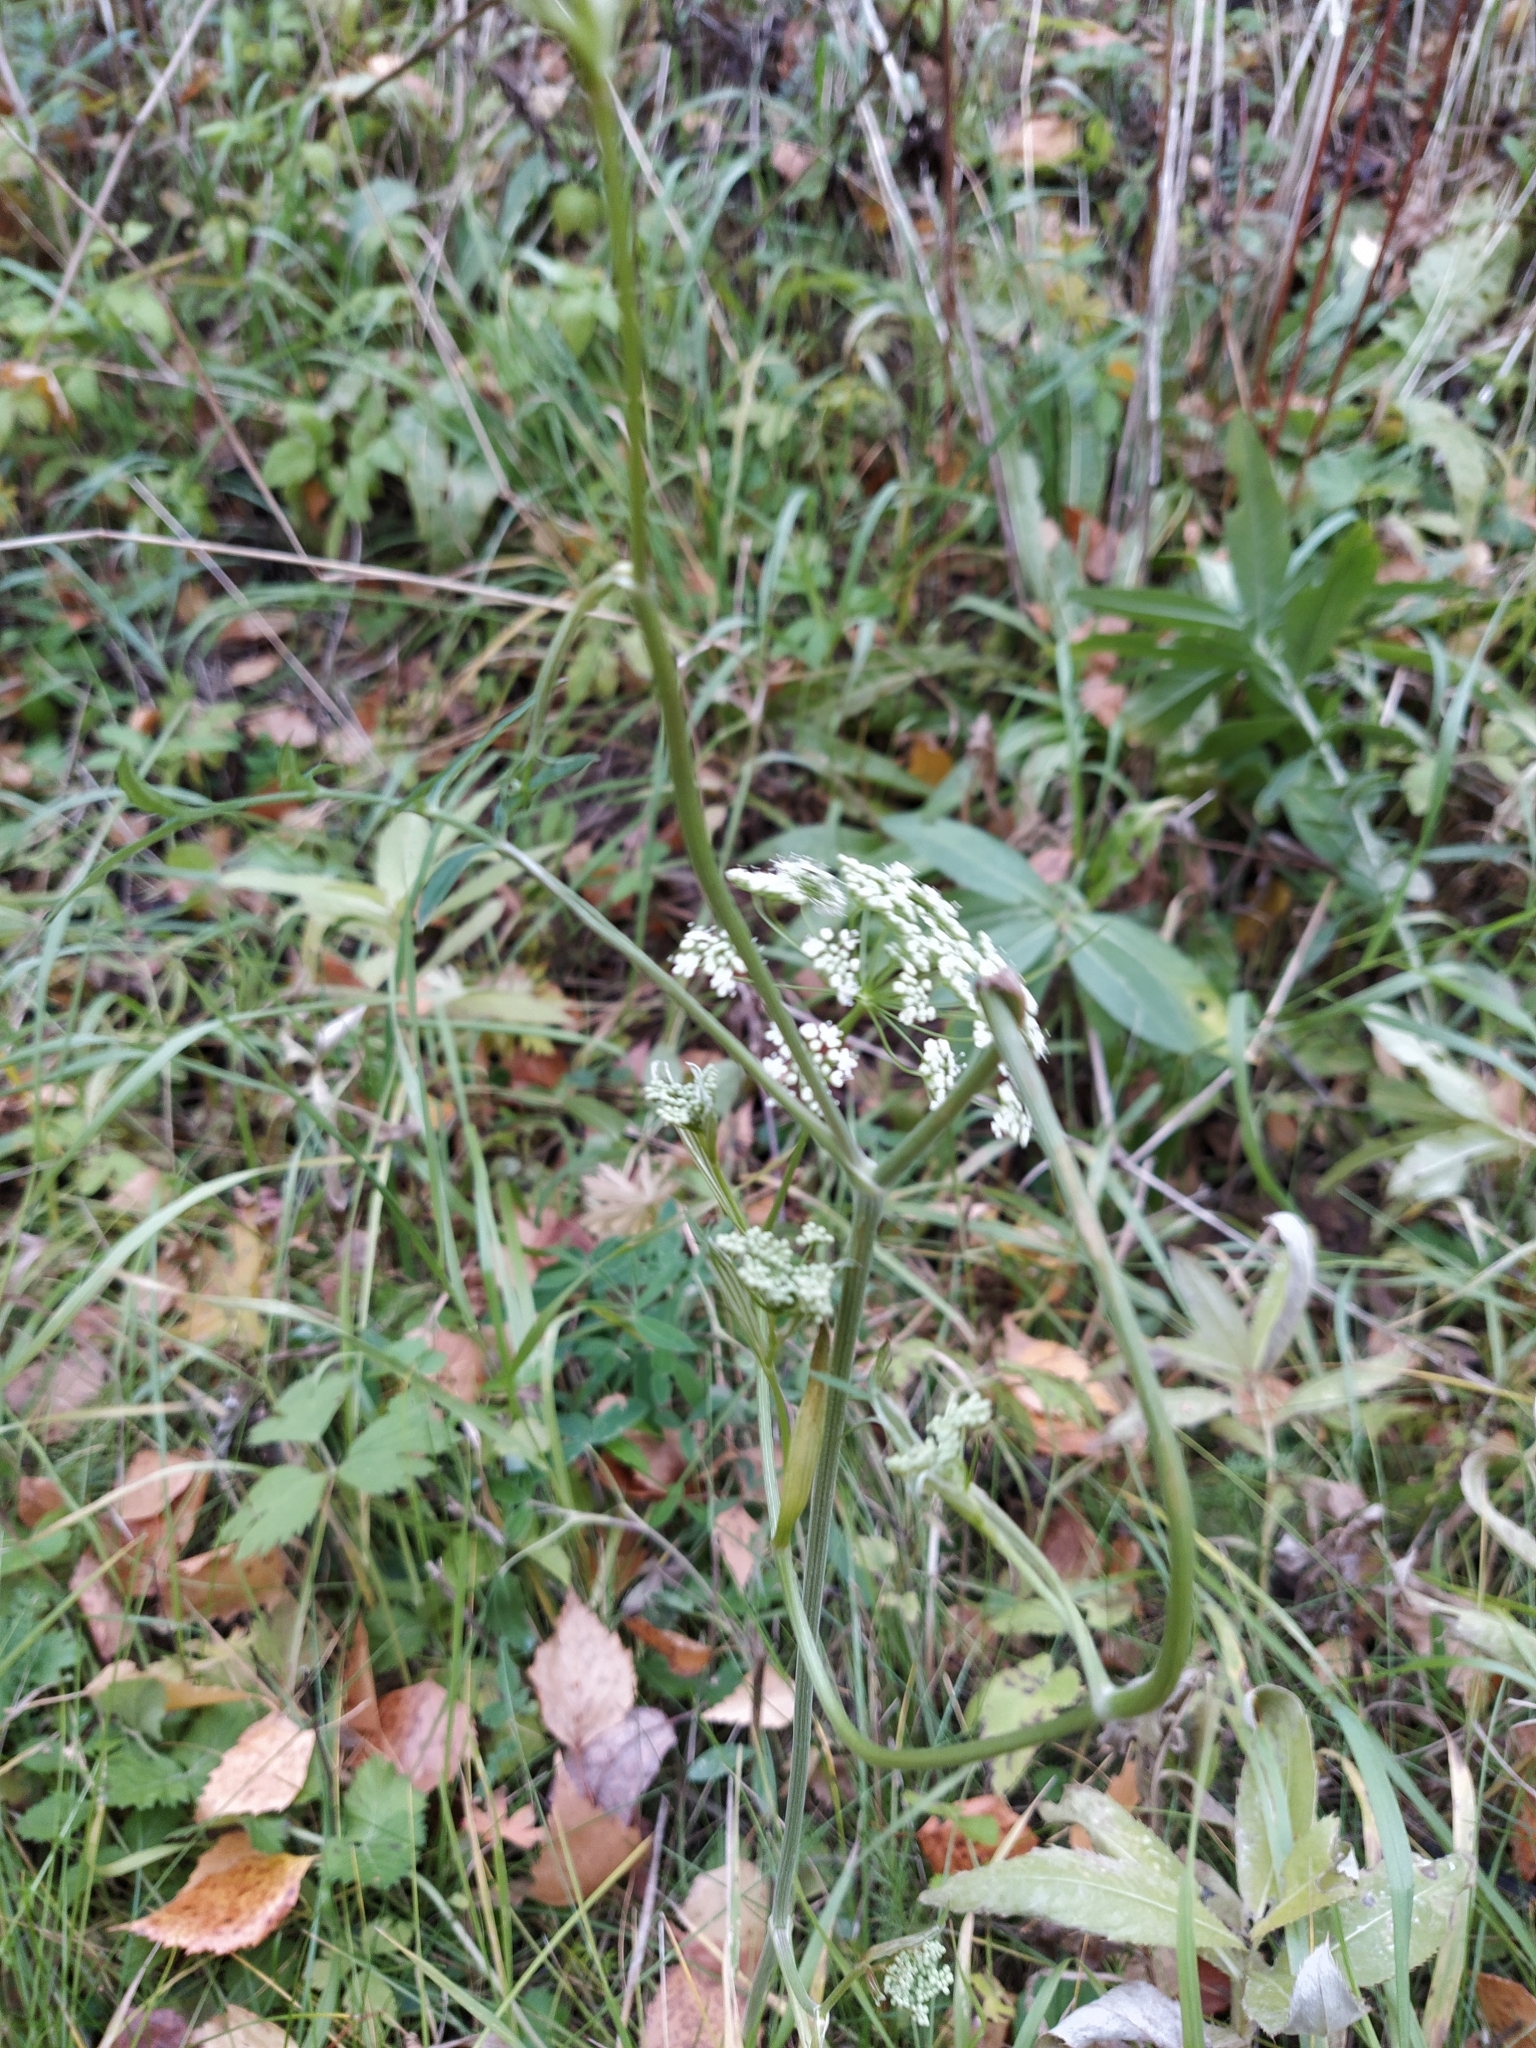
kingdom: Plantae
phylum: Tracheophyta
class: Magnoliopsida
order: Apiales
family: Apiaceae
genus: Pimpinella
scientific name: Pimpinella saxifraga
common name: Burnet-saxifrage
